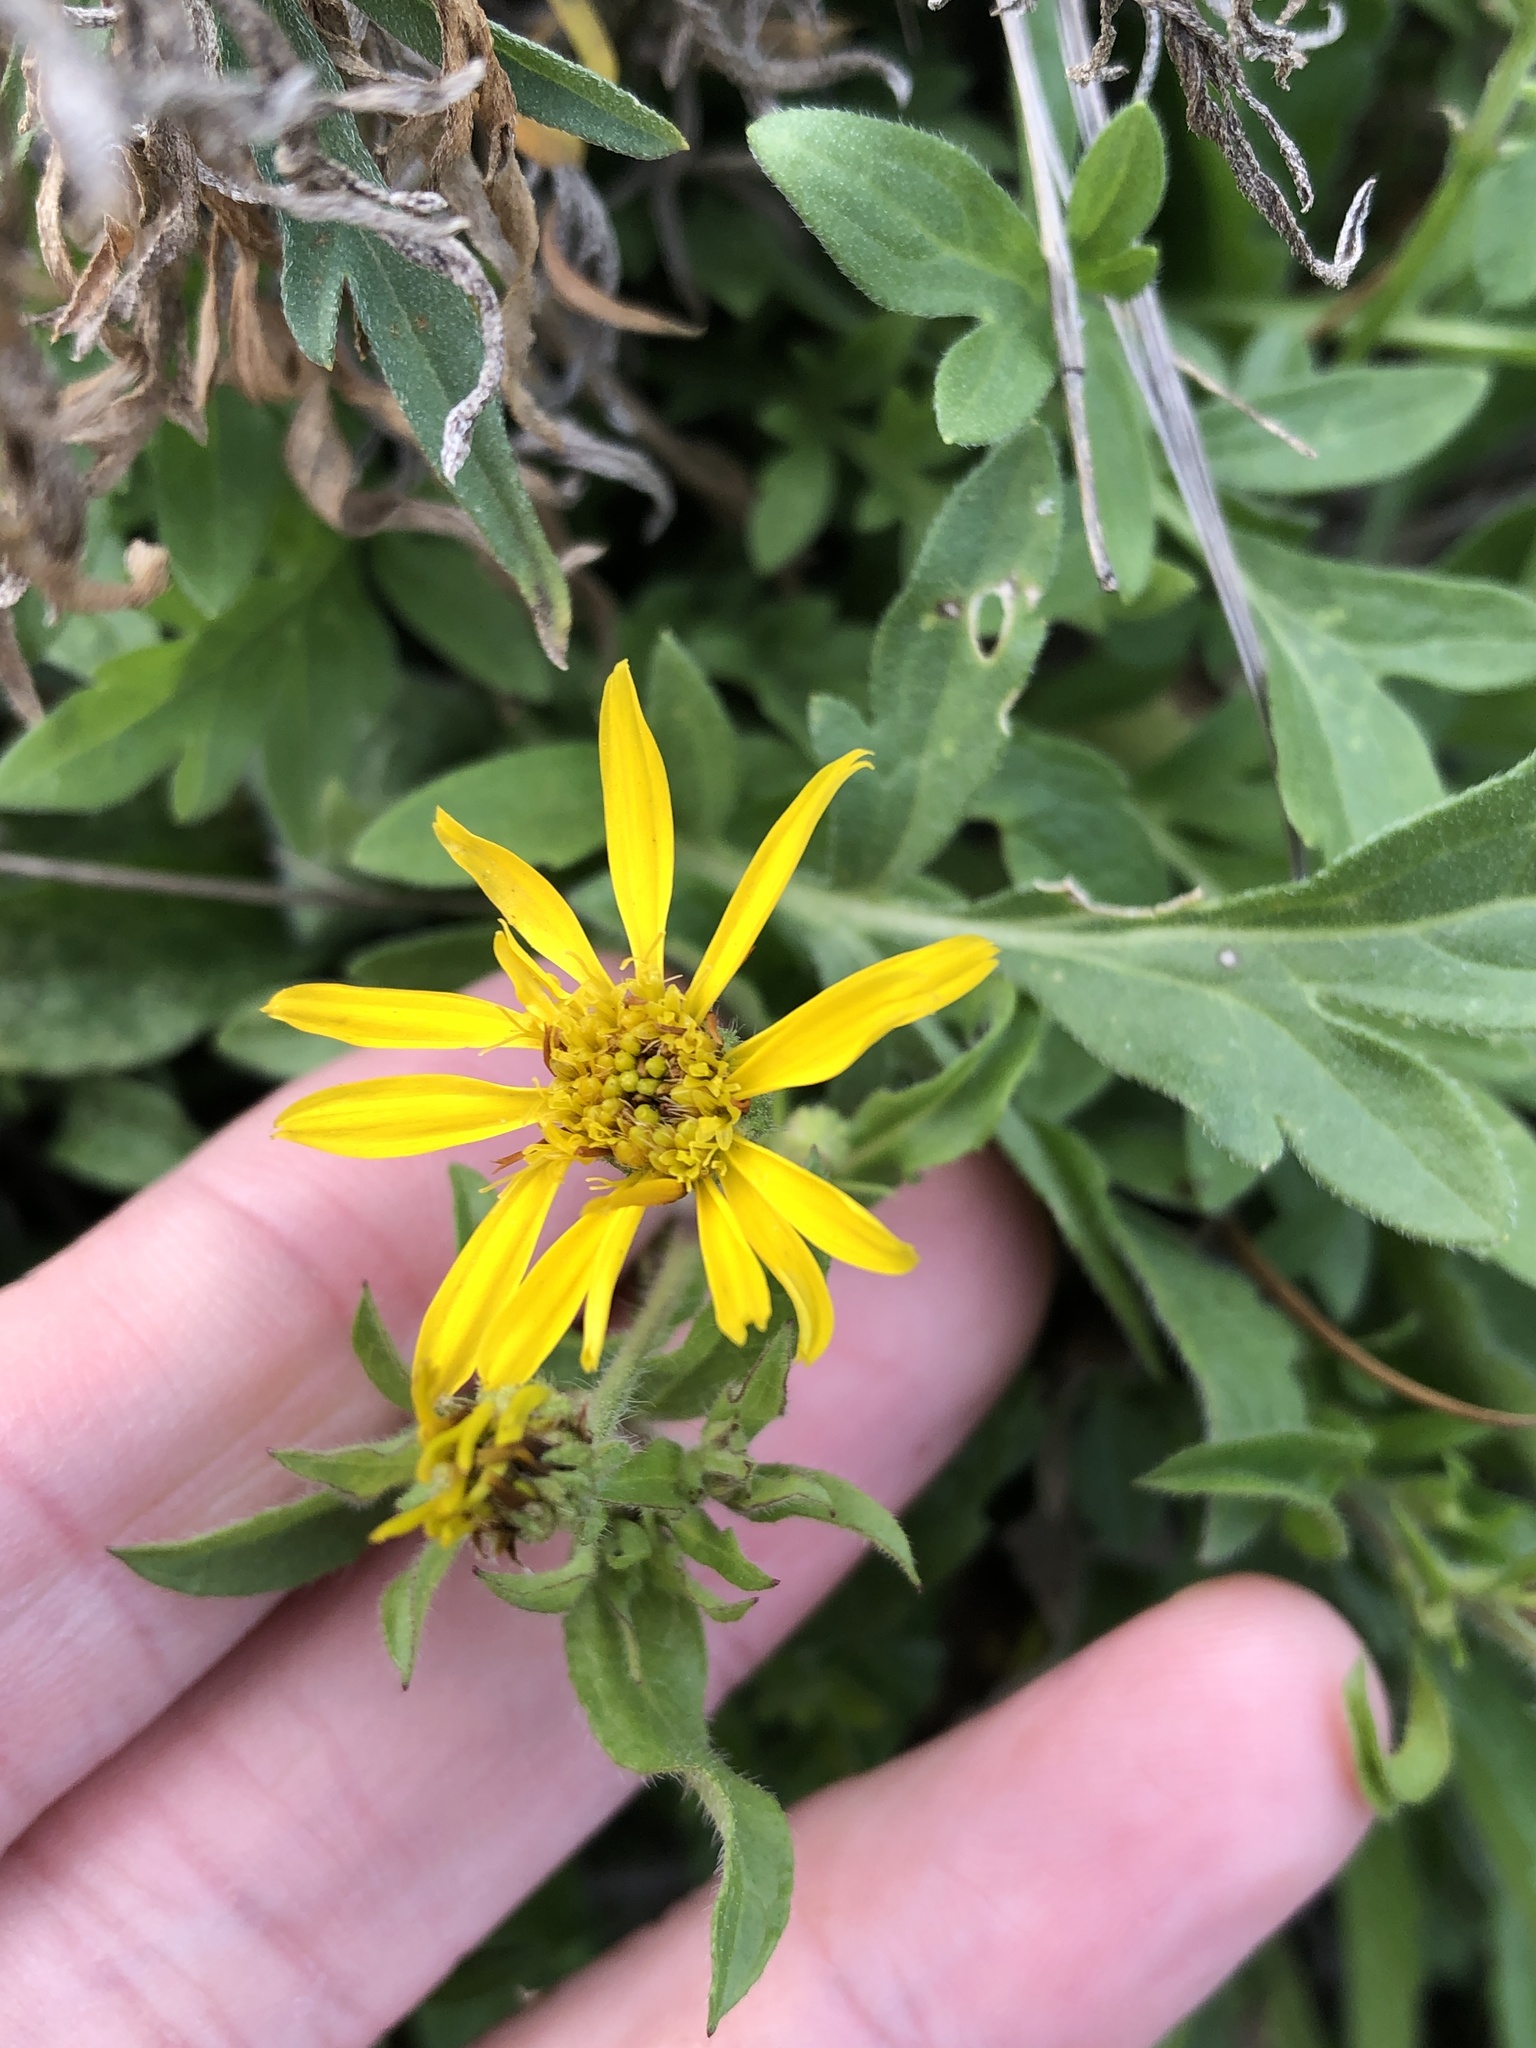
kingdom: Plantae
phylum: Tracheophyta
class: Magnoliopsida
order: Asterales
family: Asteraceae
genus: Heterotheca
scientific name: Heterotheca subaxillaris
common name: Camphorweed
